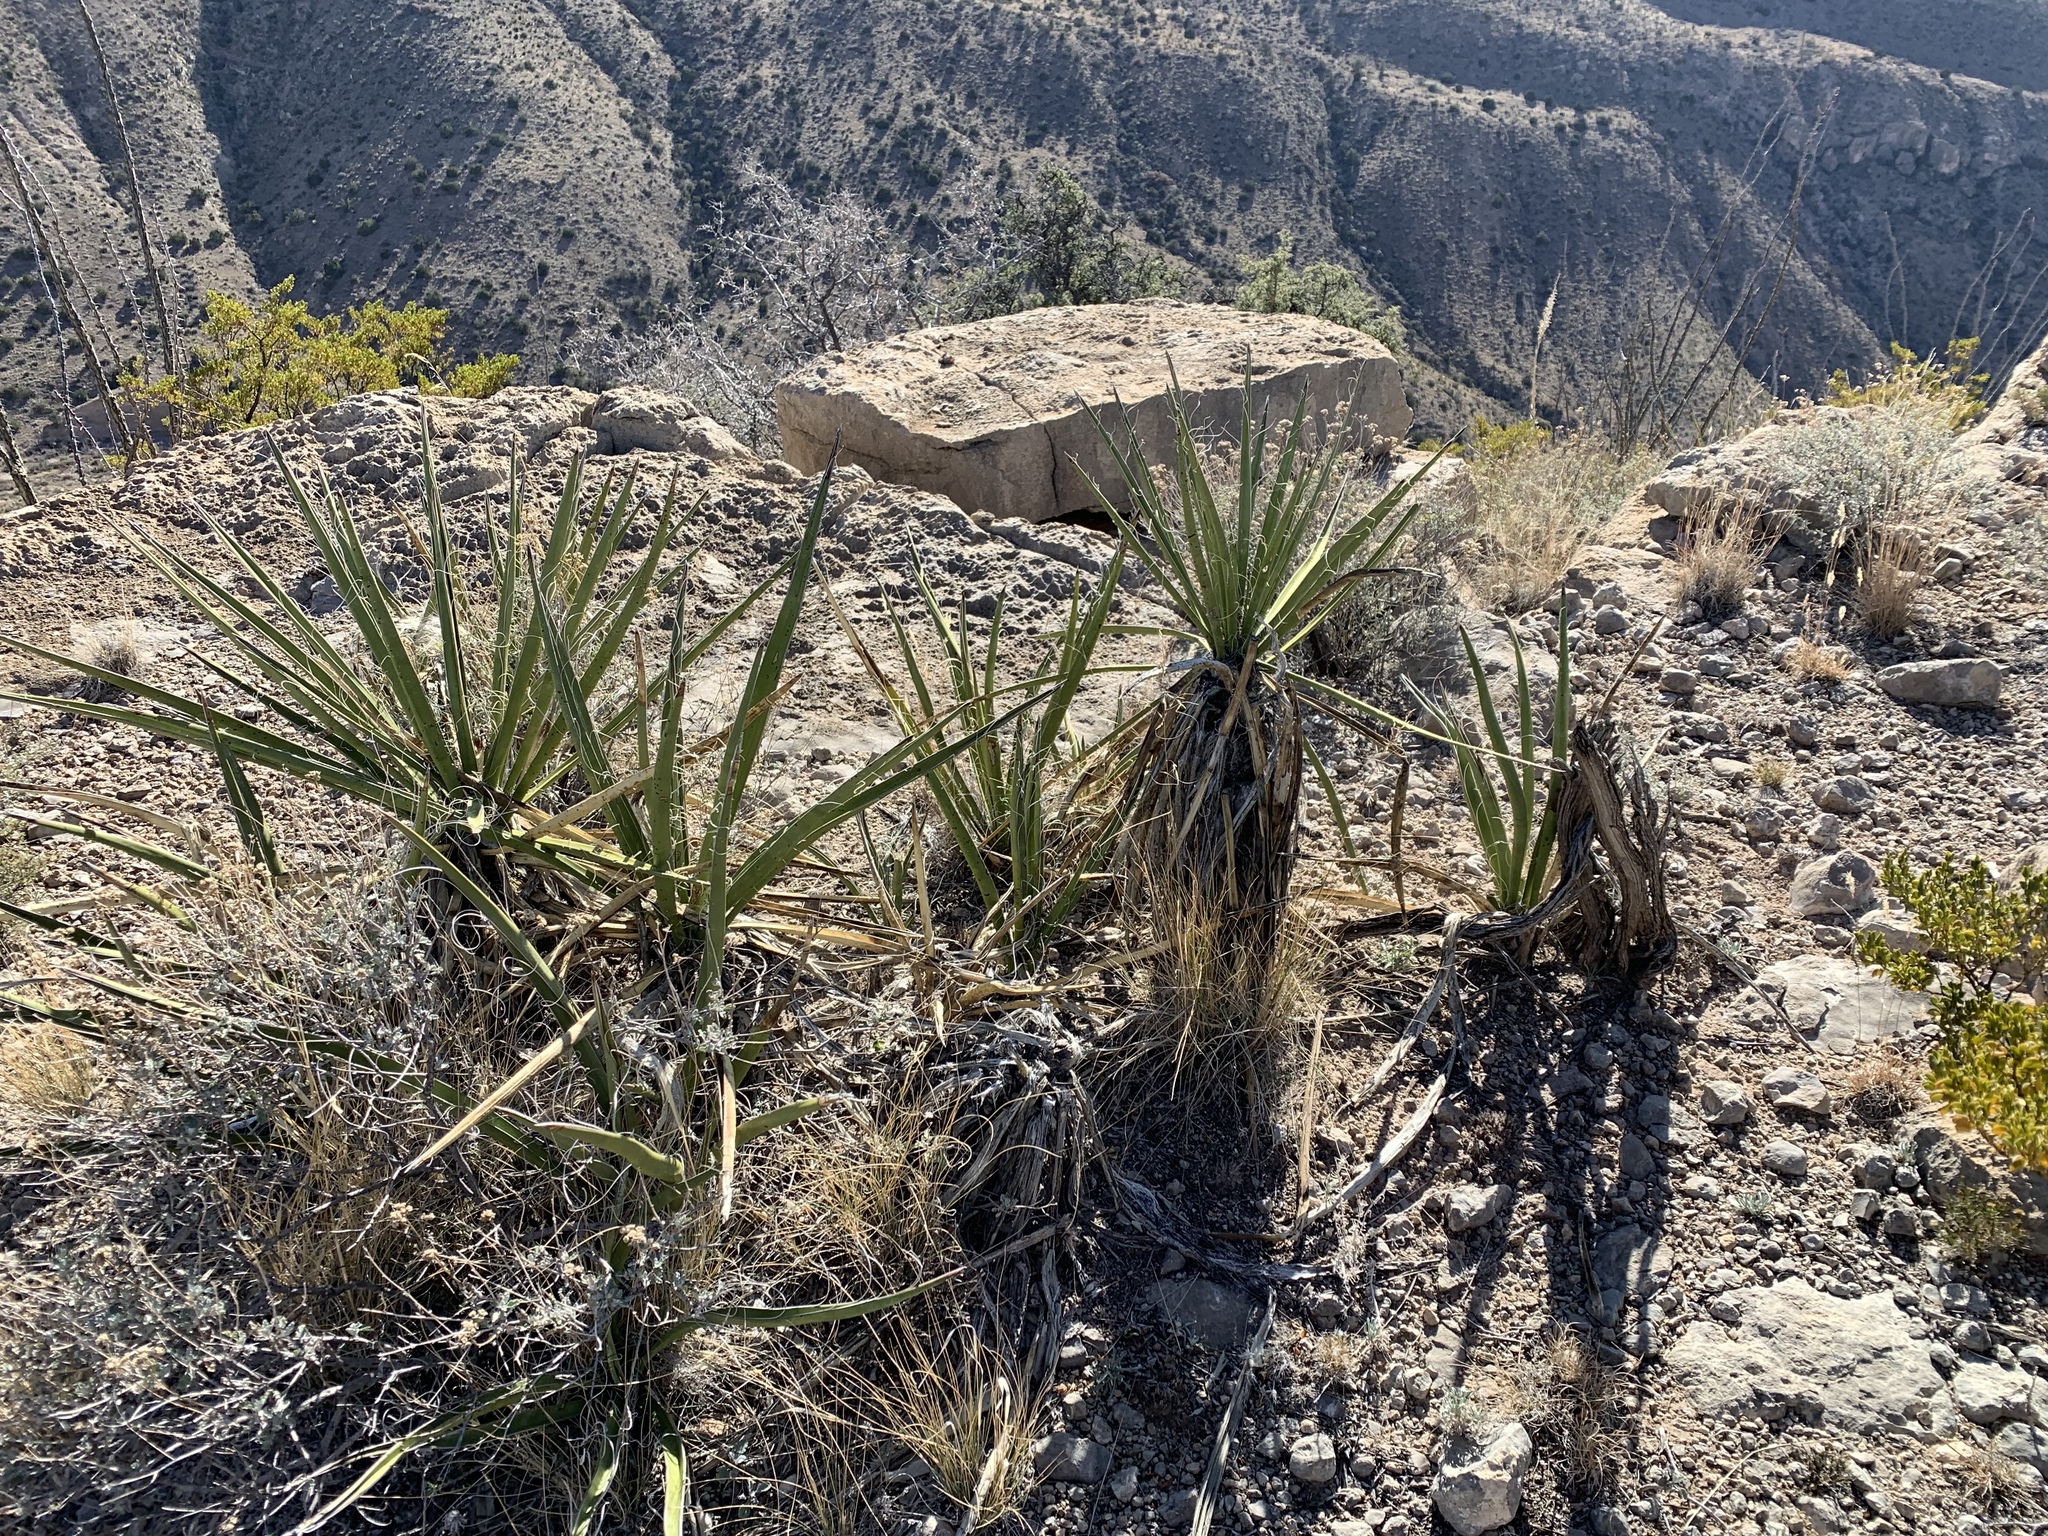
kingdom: Plantae
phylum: Tracheophyta
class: Liliopsida
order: Asparagales
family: Asparagaceae
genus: Yucca
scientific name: Yucca treculiana
